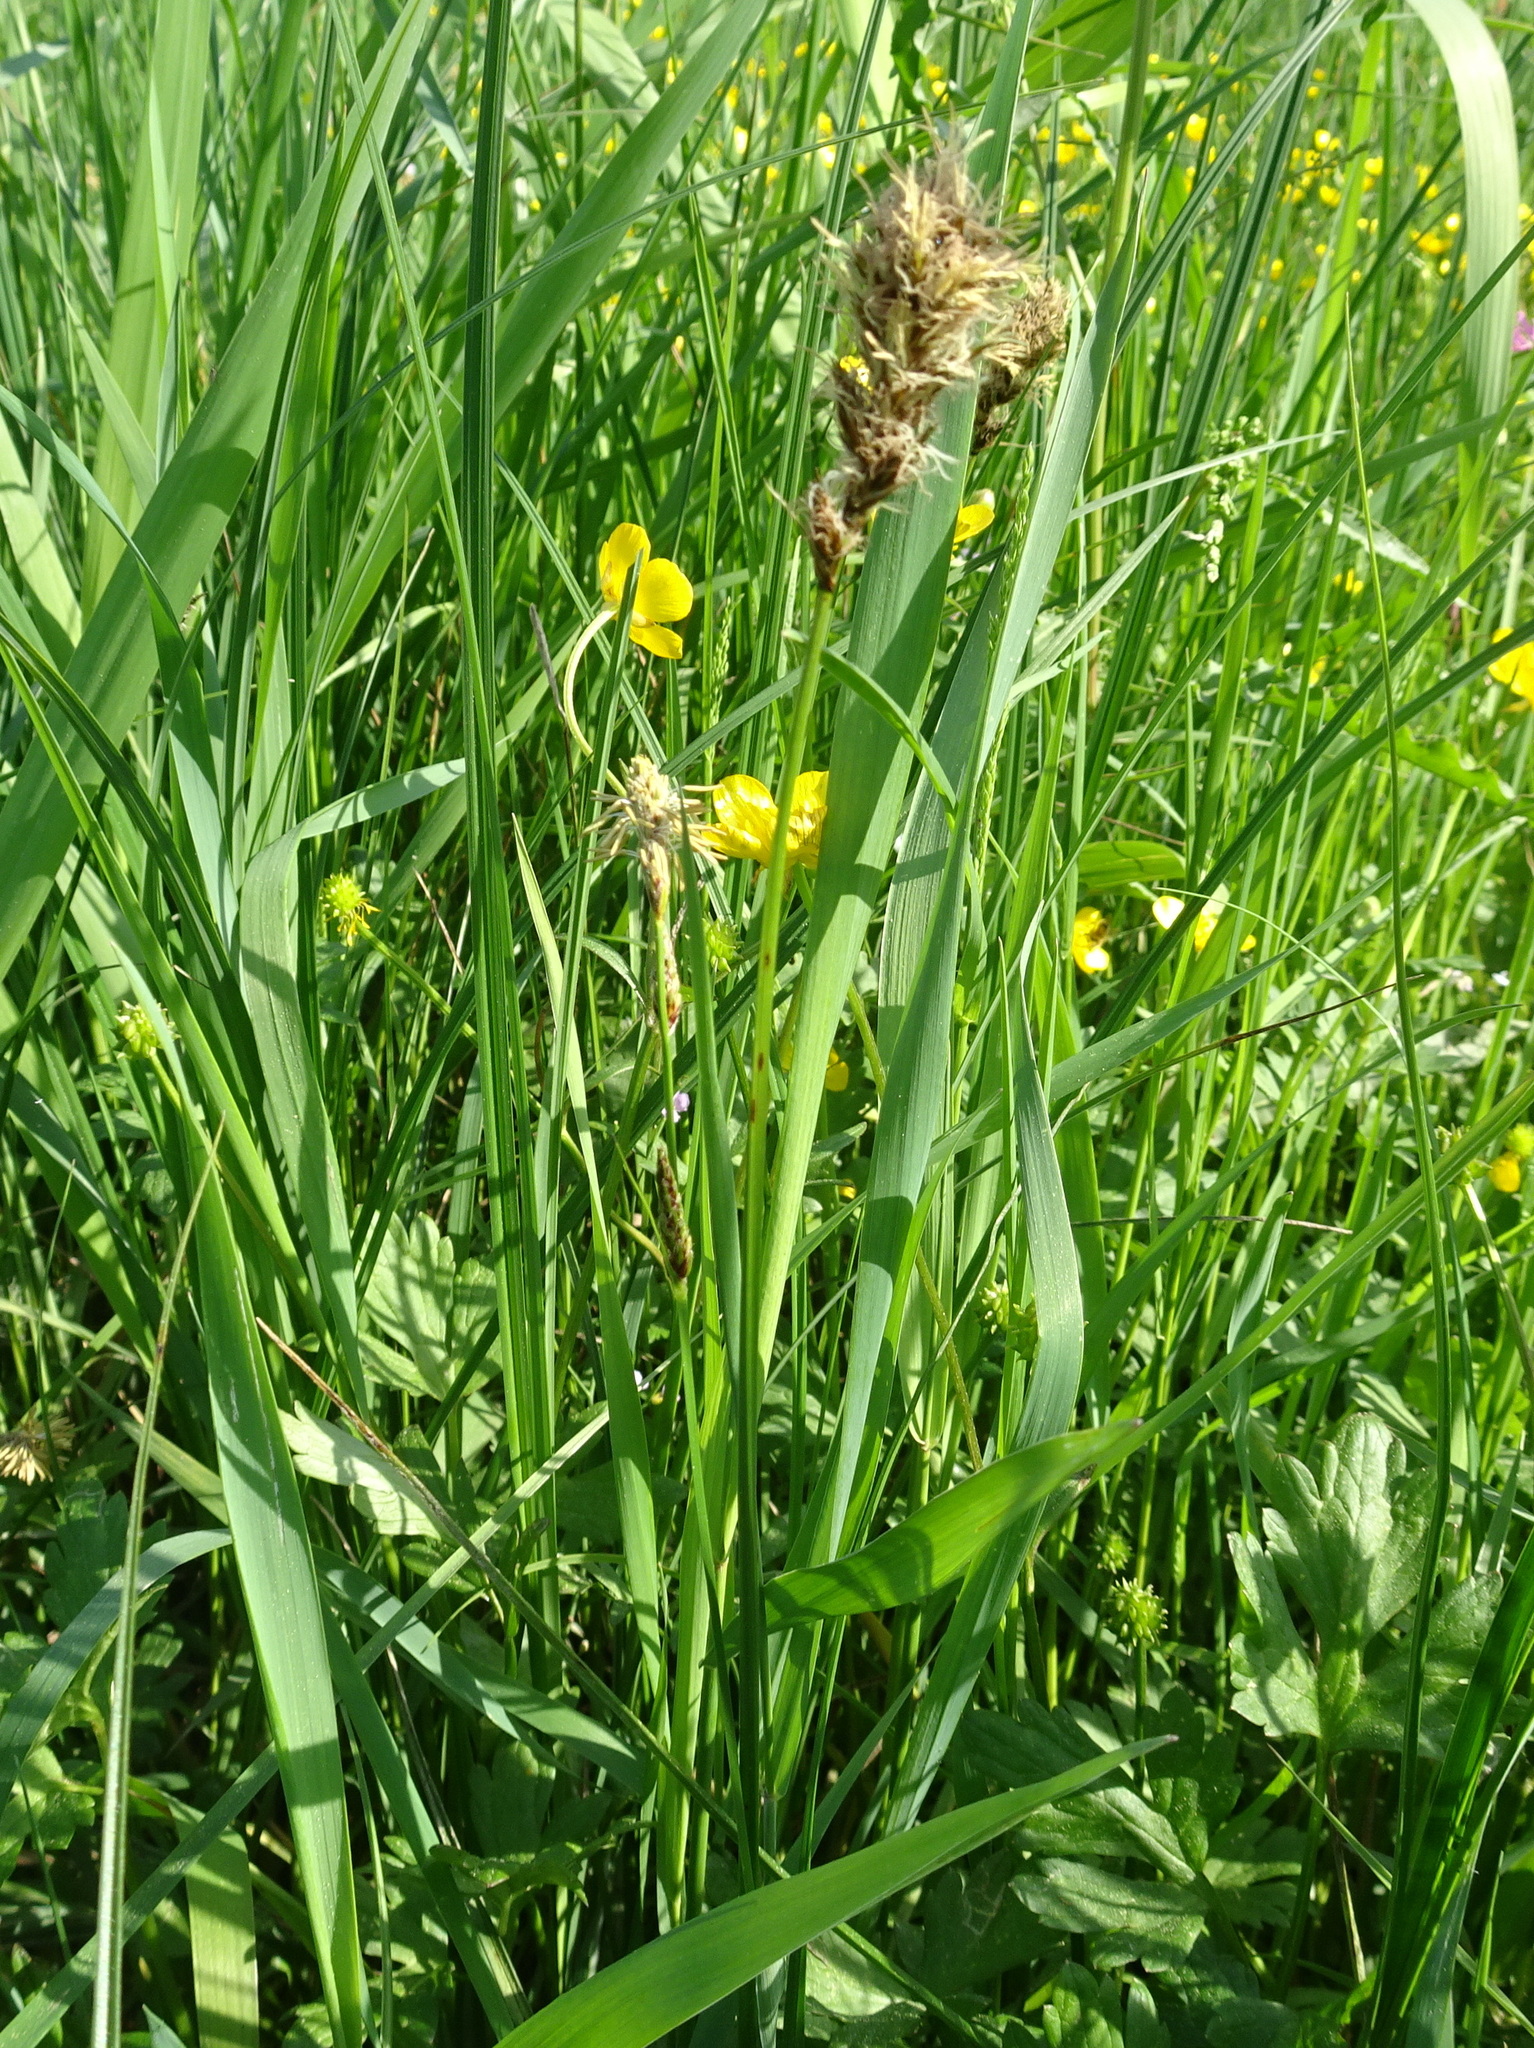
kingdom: Plantae
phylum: Tracheophyta
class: Liliopsida
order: Poales
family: Cyperaceae
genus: Carex
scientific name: Carex disticha
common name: Brown sedge
